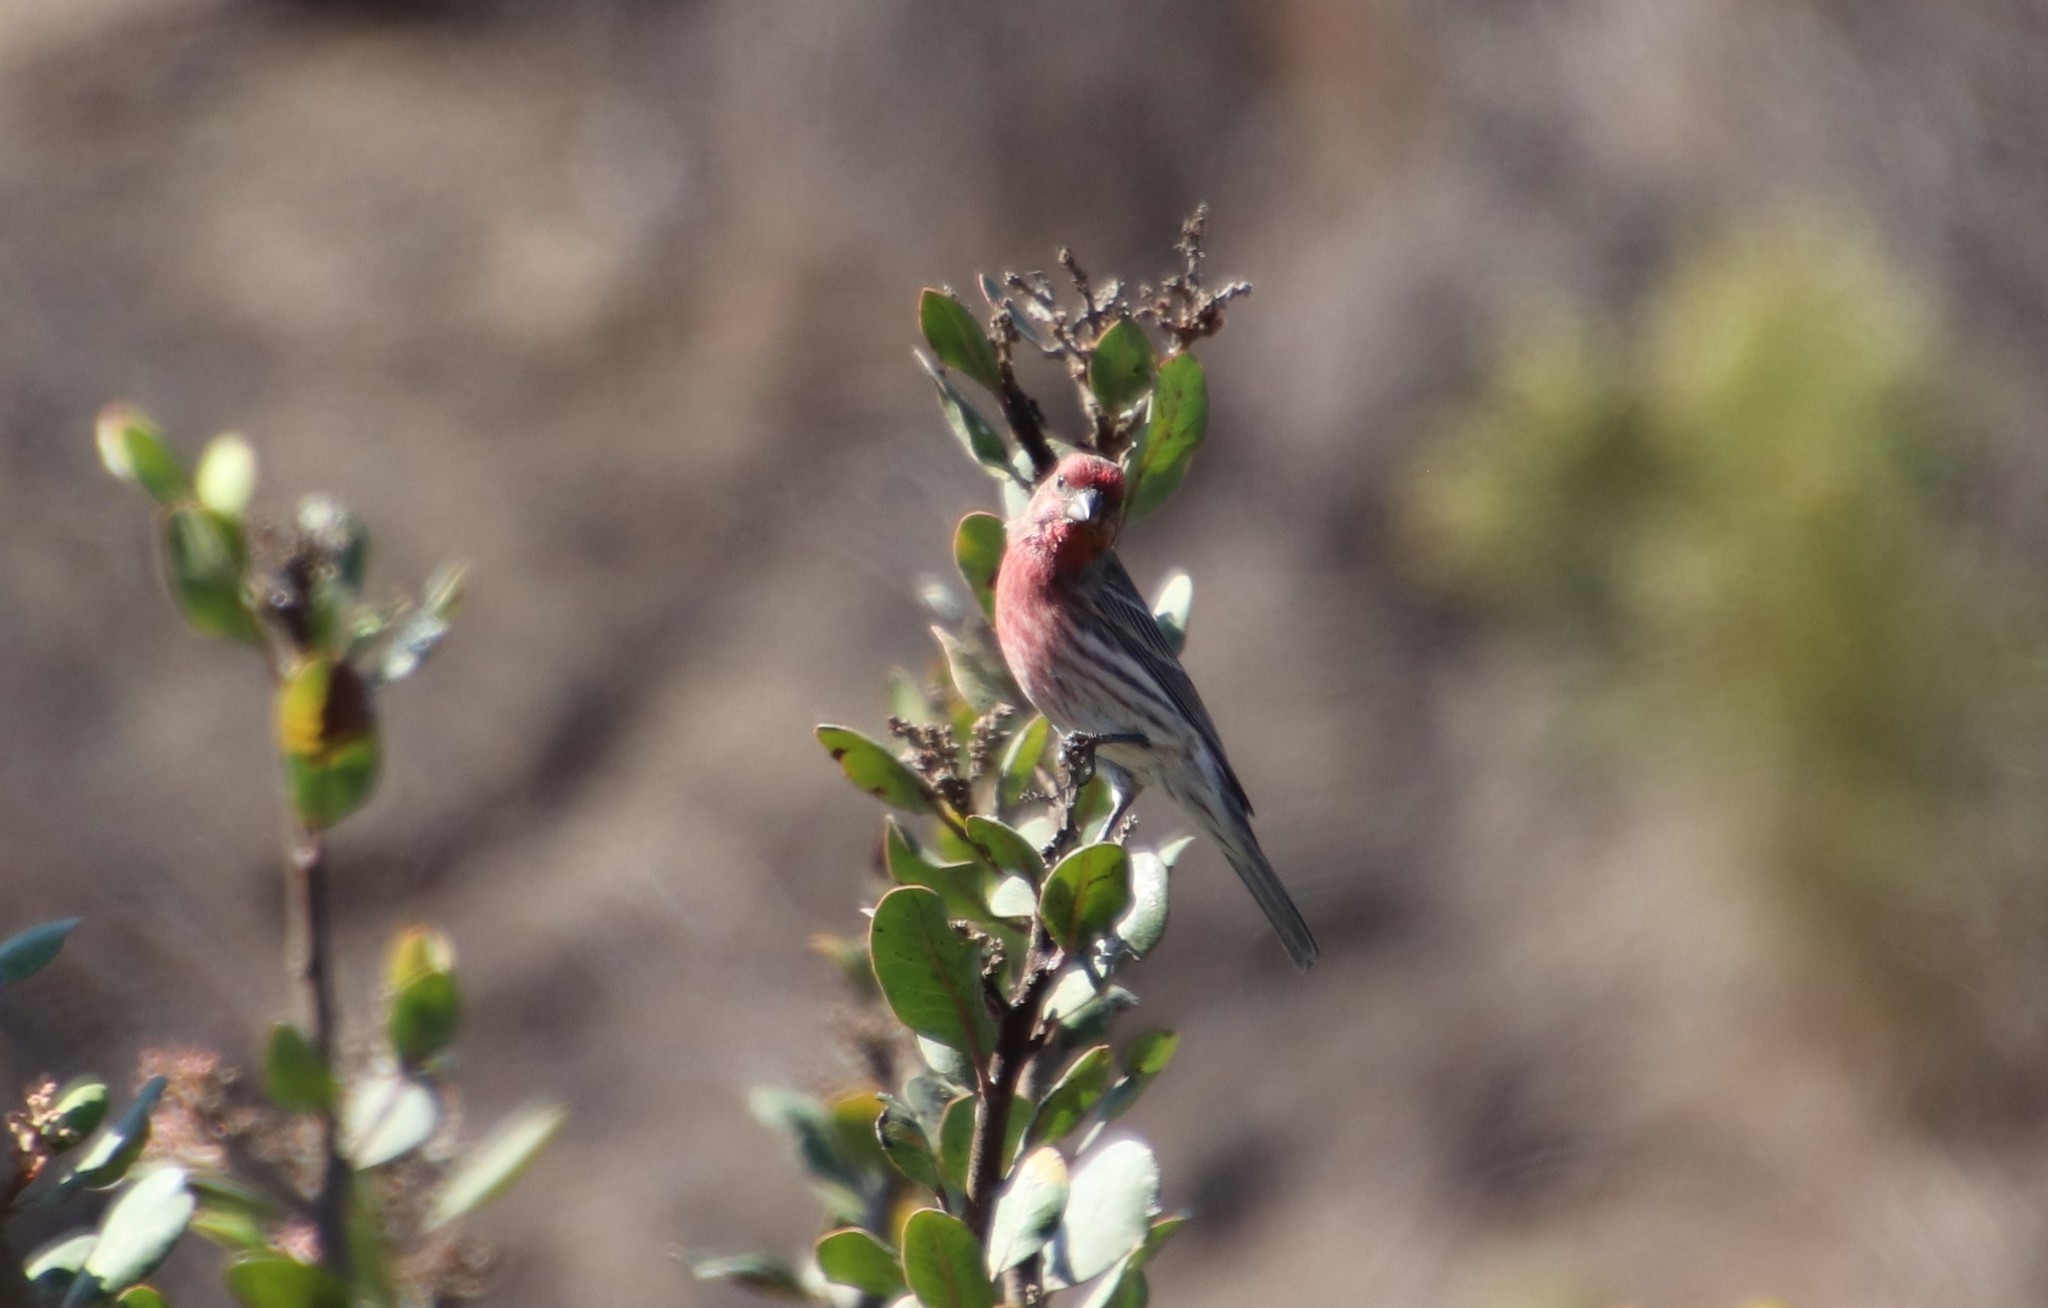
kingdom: Animalia
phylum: Chordata
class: Aves
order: Passeriformes
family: Fringillidae
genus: Haemorhous
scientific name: Haemorhous mexicanus
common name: House finch
